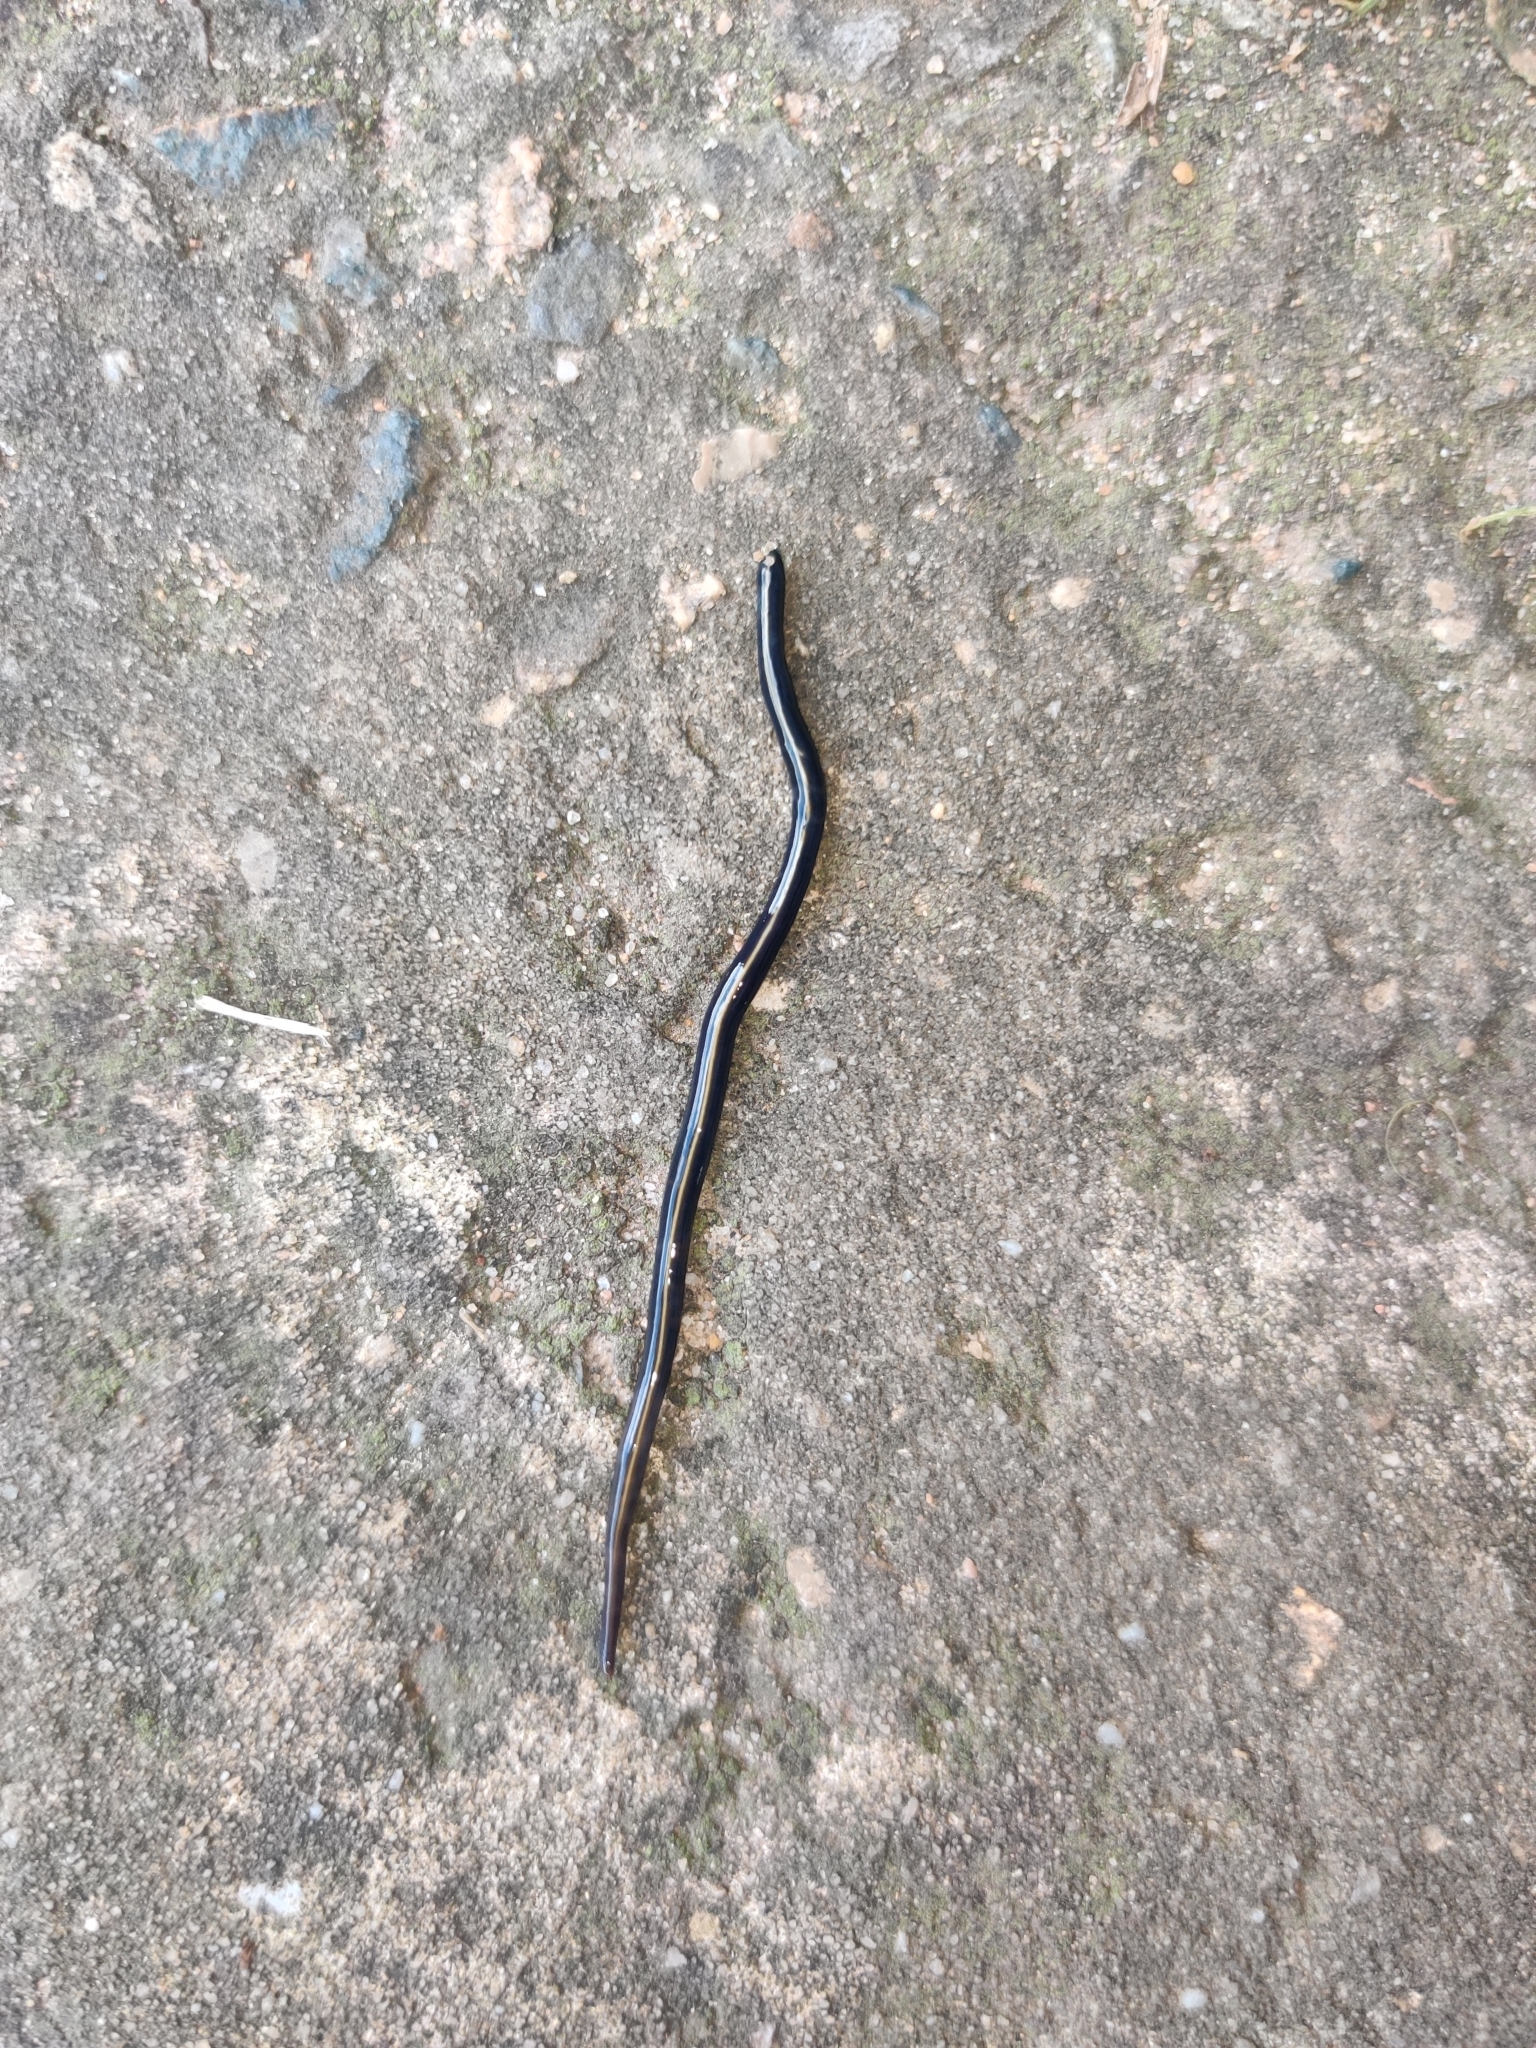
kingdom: Animalia
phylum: Platyhelminthes
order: Tricladida
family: Geoplanidae
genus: Caenoplana
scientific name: Caenoplana coerulea
